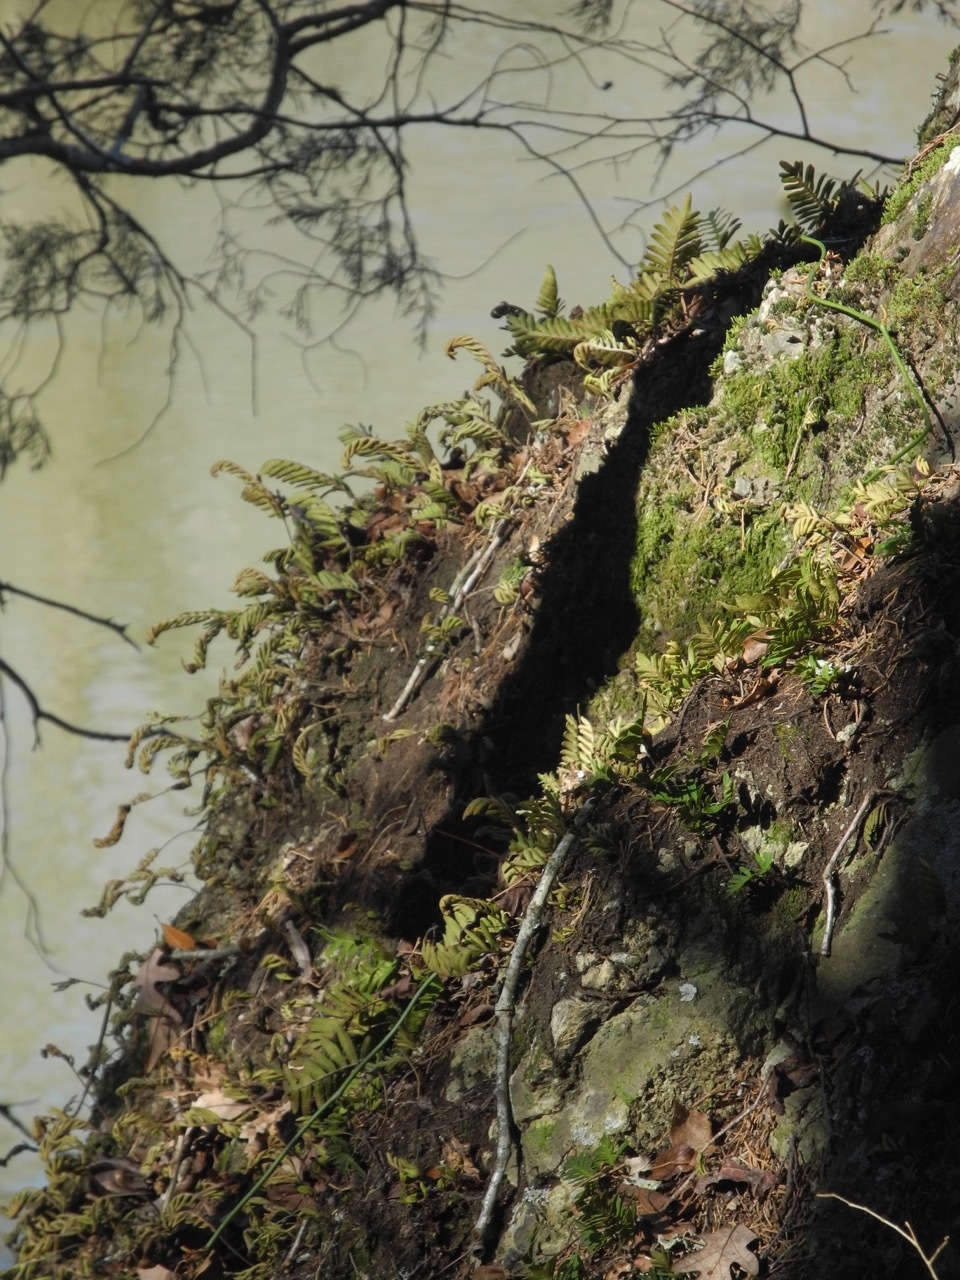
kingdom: Plantae
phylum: Tracheophyta
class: Polypodiopsida
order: Polypodiales
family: Polypodiaceae
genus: Pleopeltis
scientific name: Pleopeltis michauxiana
